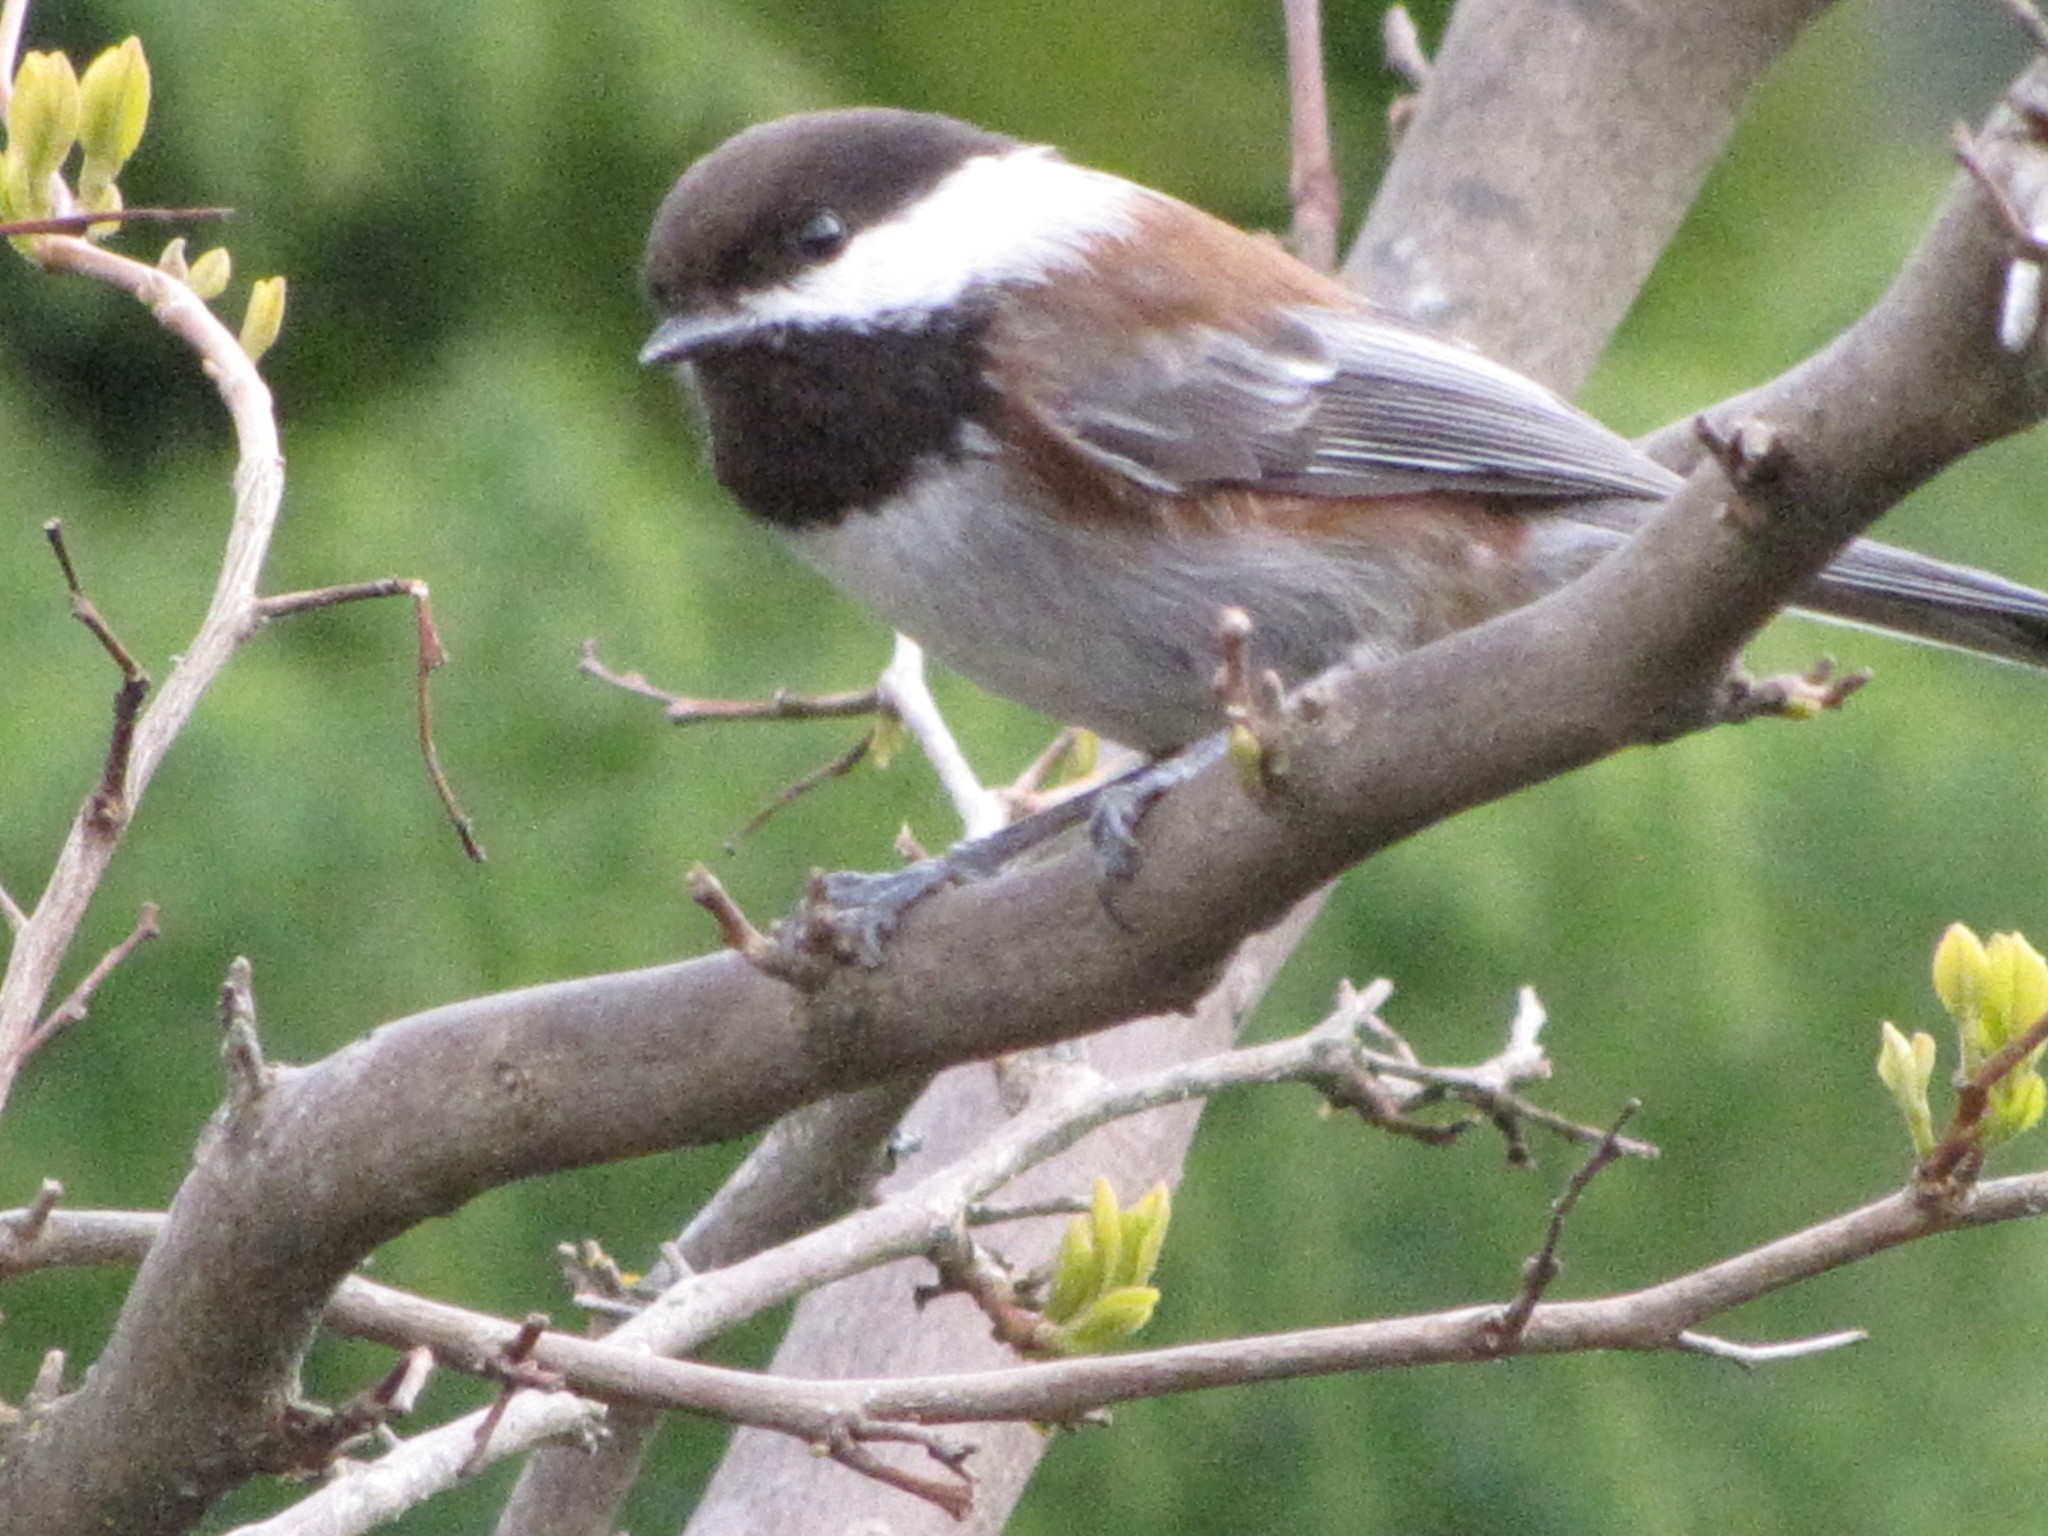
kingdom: Animalia
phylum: Chordata
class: Aves
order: Passeriformes
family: Paridae
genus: Poecile
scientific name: Poecile rufescens
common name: Chestnut-backed chickadee
